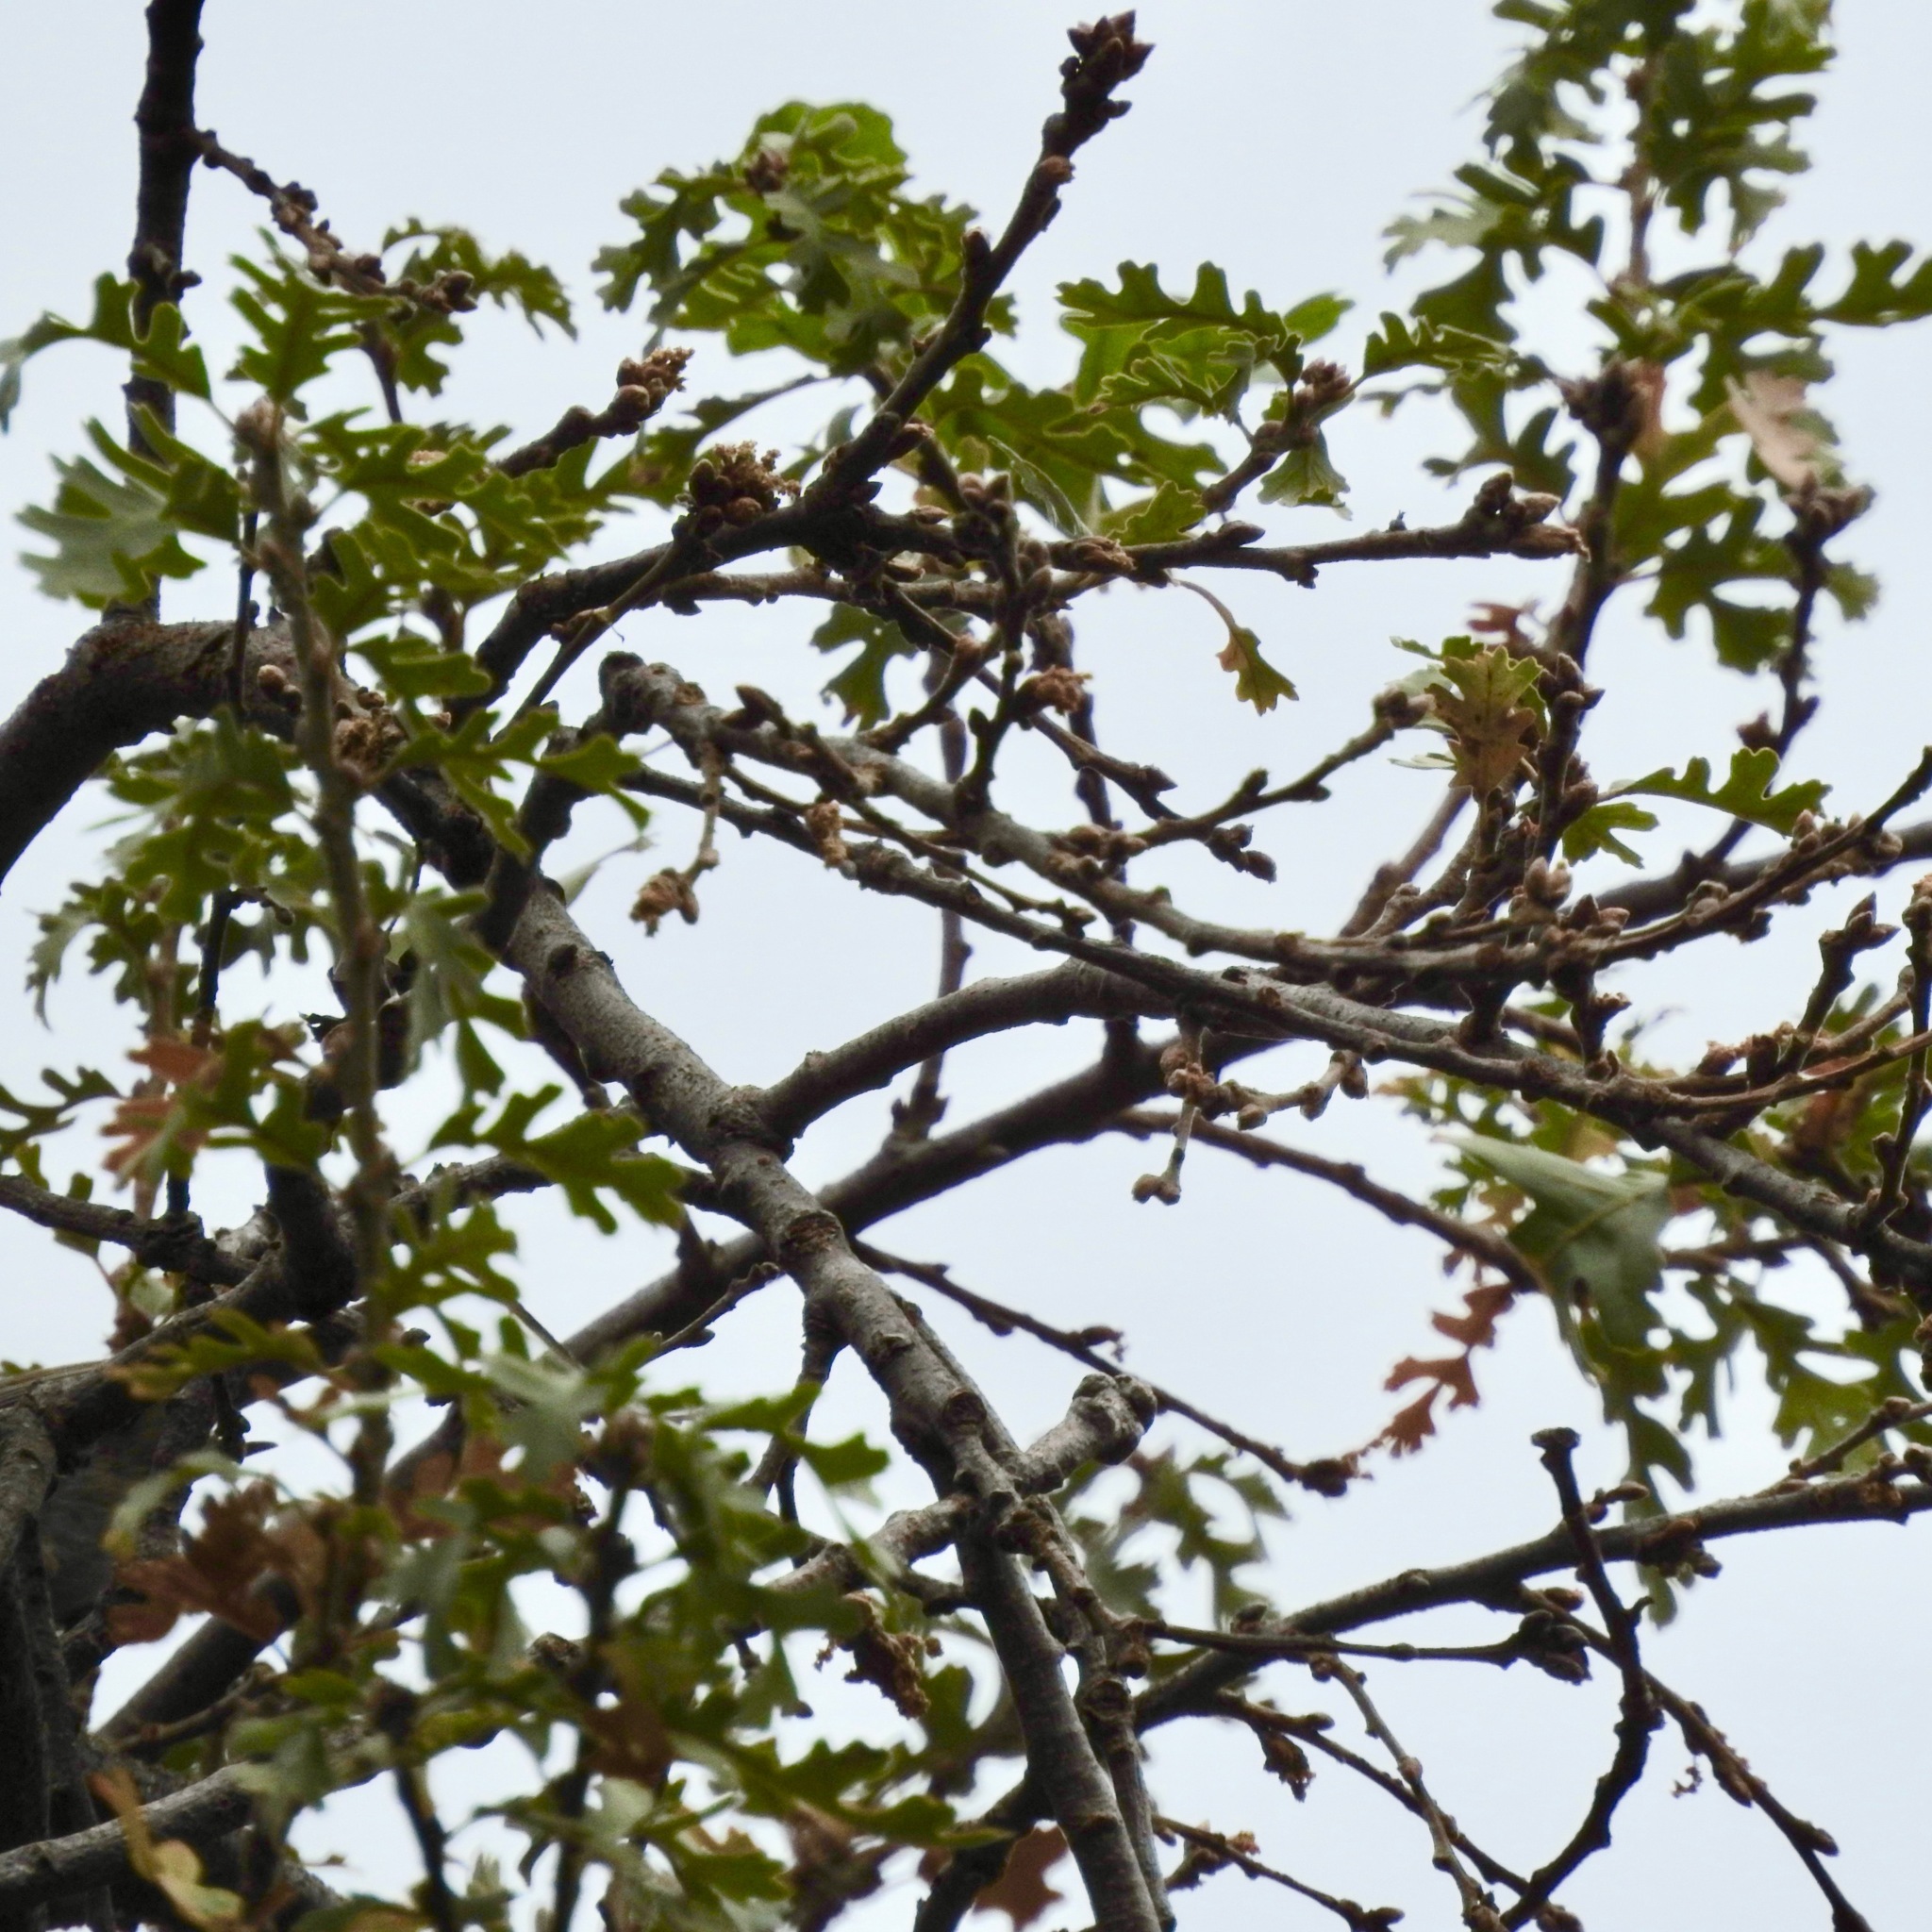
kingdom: Plantae
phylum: Tracheophyta
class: Magnoliopsida
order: Fagales
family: Fagaceae
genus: Quercus
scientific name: Quercus lobata
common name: Valley oak
